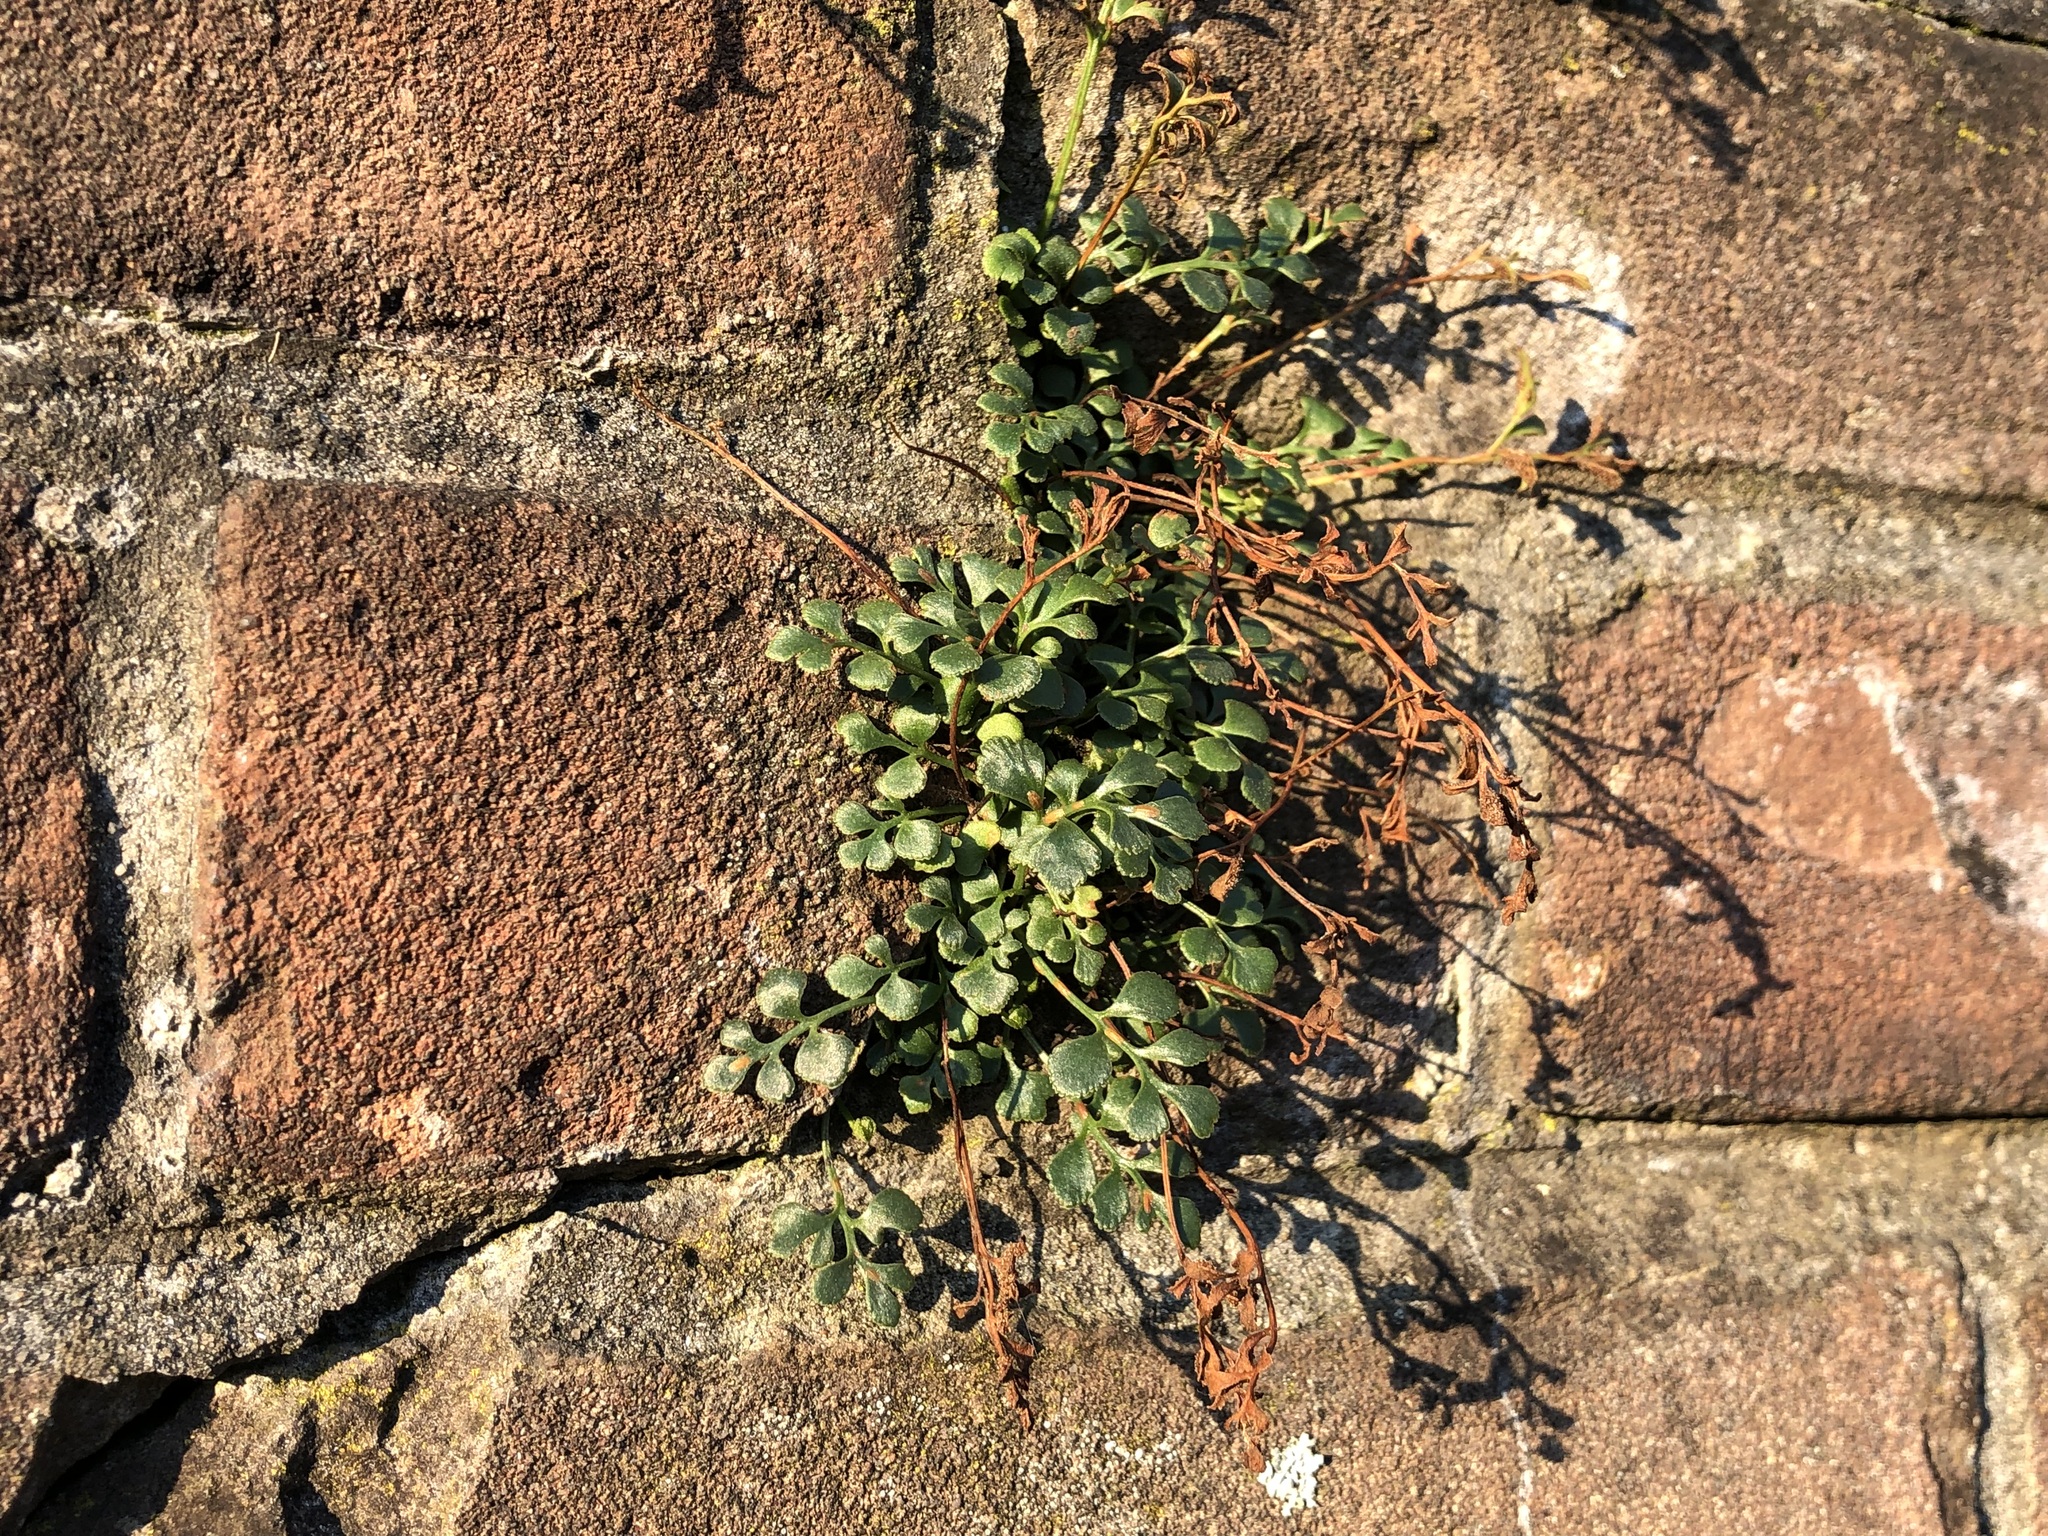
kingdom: Plantae
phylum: Tracheophyta
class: Polypodiopsida
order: Polypodiales
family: Aspleniaceae
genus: Asplenium
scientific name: Asplenium ruta-muraria
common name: Wall-rue
